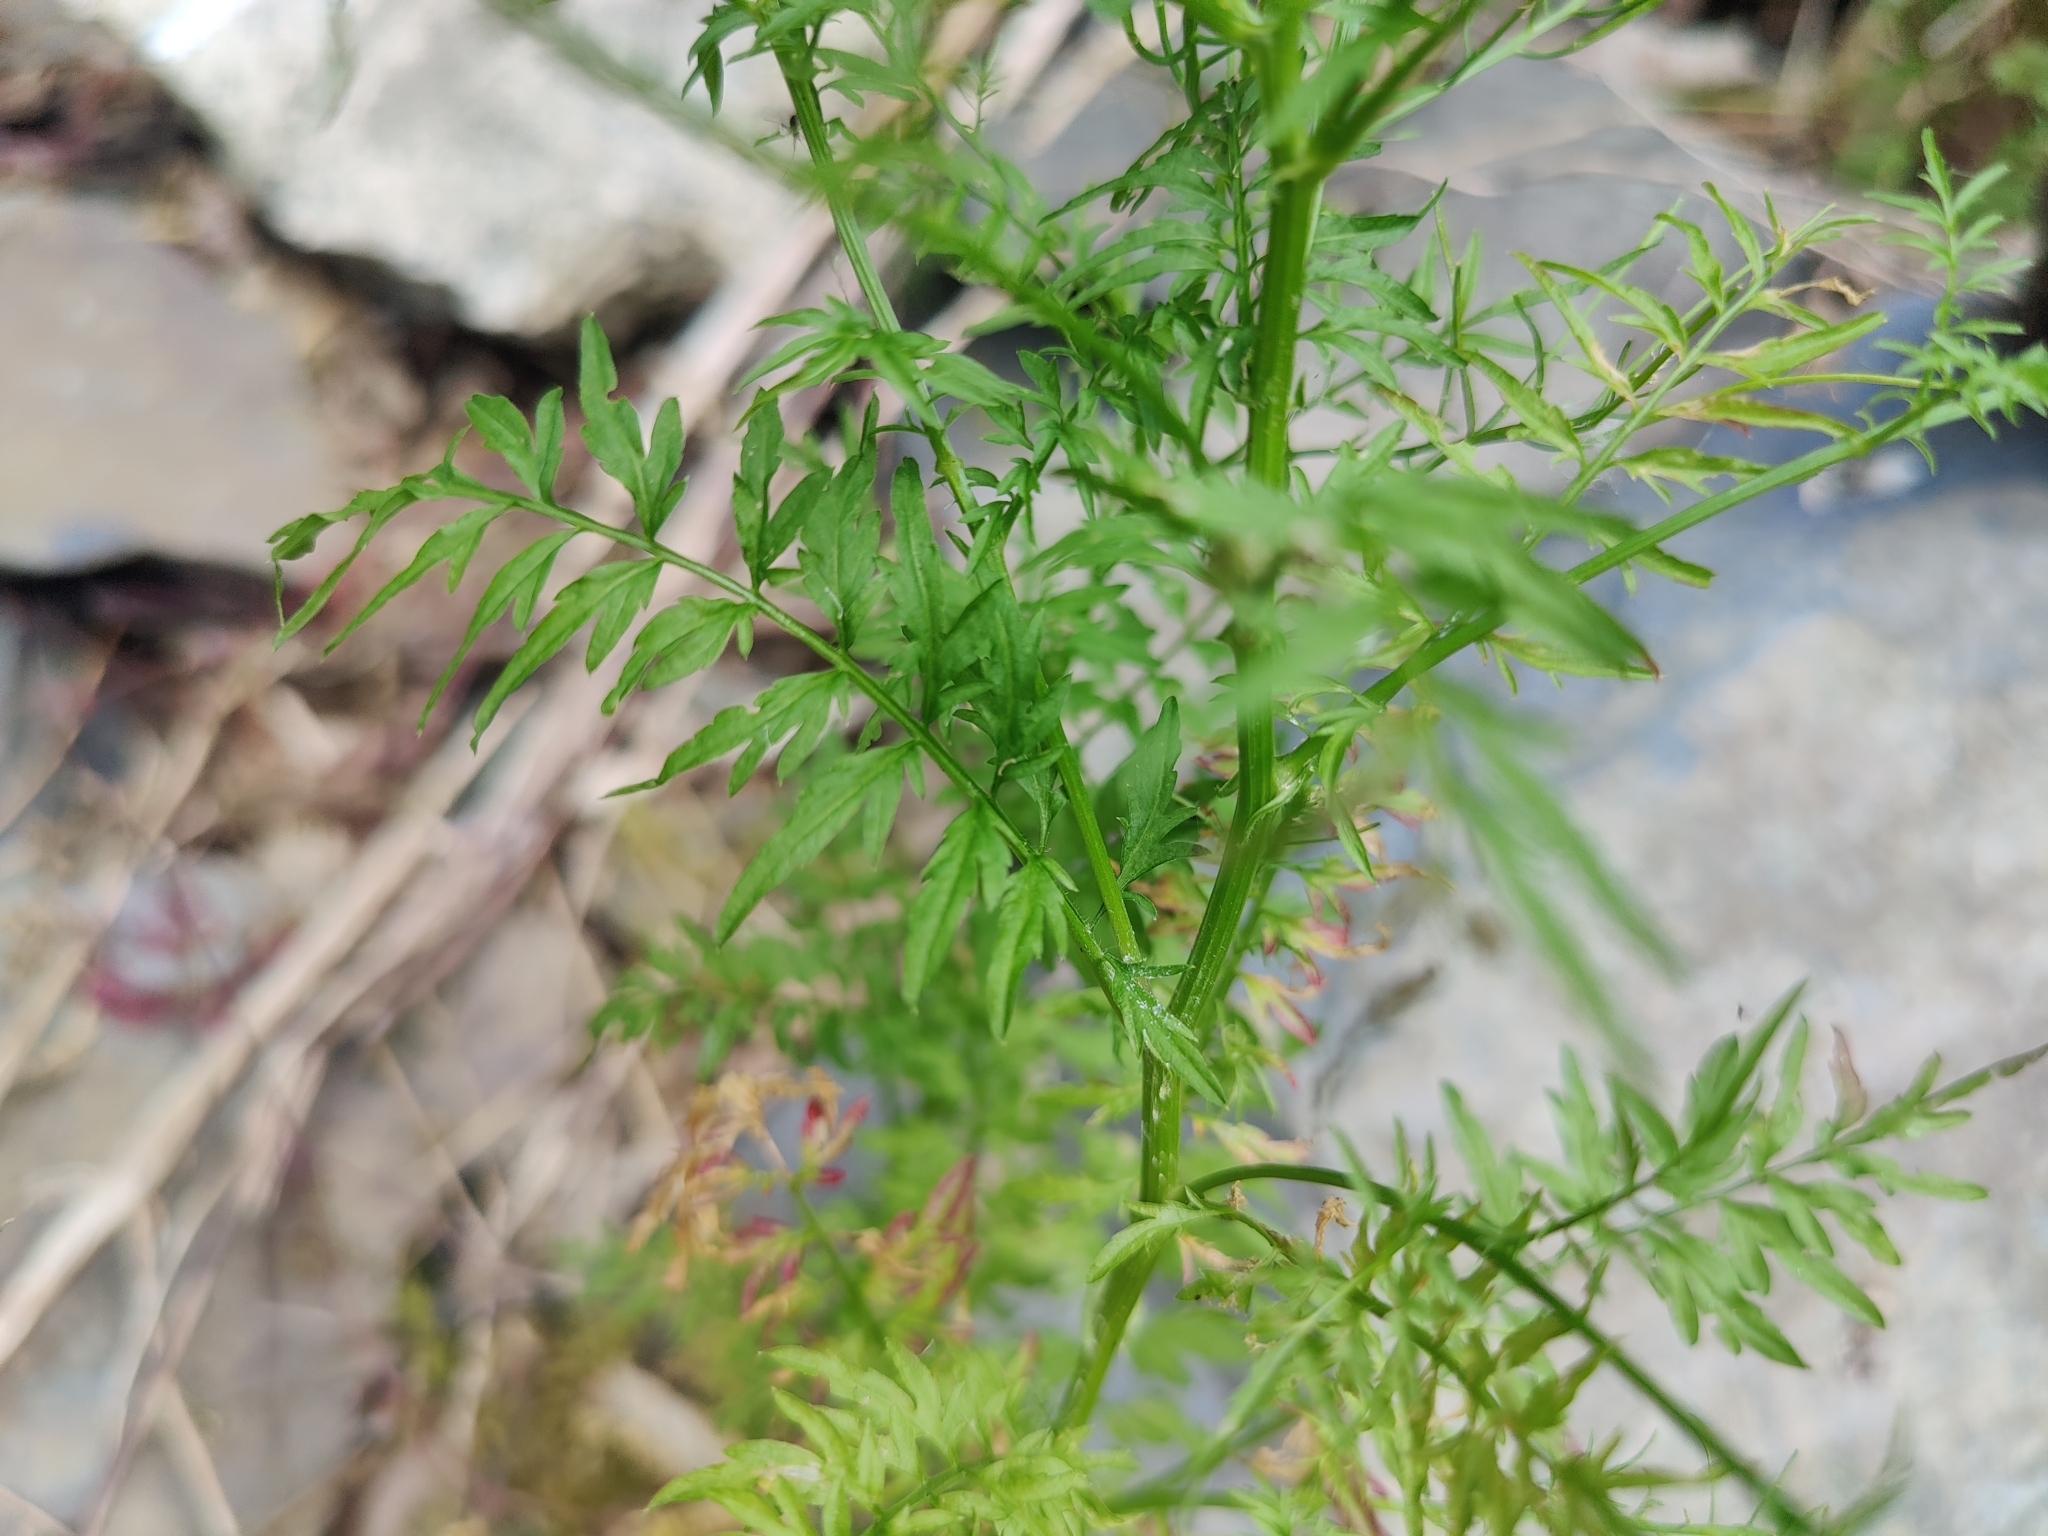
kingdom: Plantae
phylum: Tracheophyta
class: Magnoliopsida
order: Brassicales
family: Brassicaceae
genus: Cardamine
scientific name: Cardamine impatiens
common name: Narrow-leaved bitter-cress
